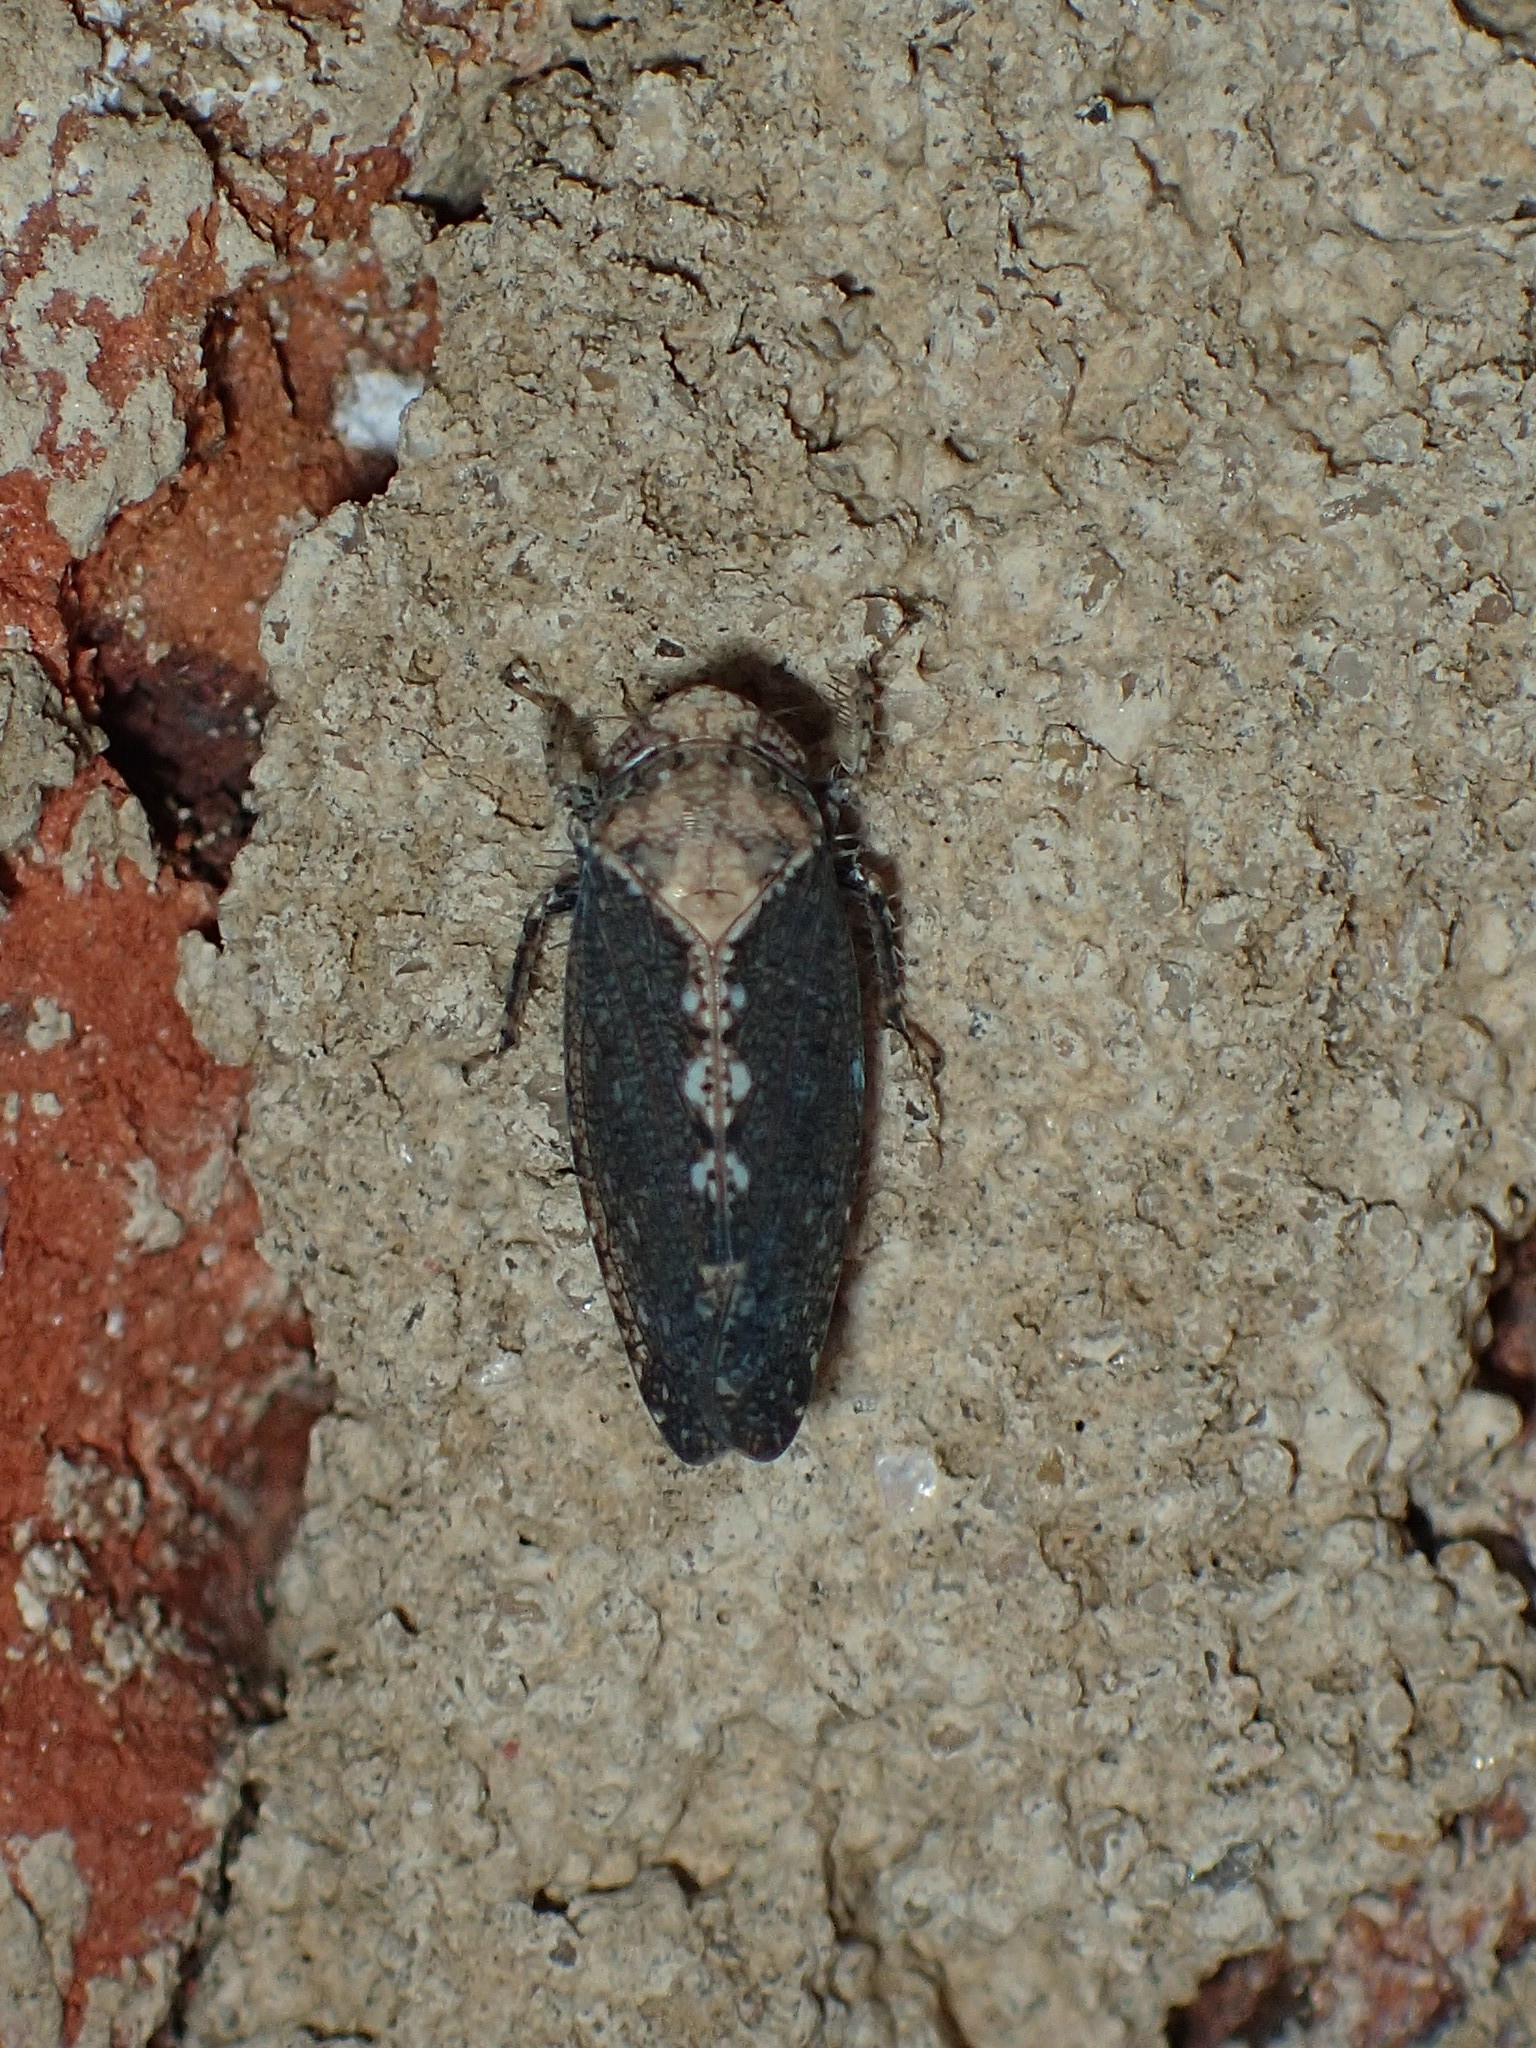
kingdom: Animalia
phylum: Arthropoda
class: Insecta
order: Hemiptera
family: Cicadellidae
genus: Excultanus
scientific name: Excultanus excultus
